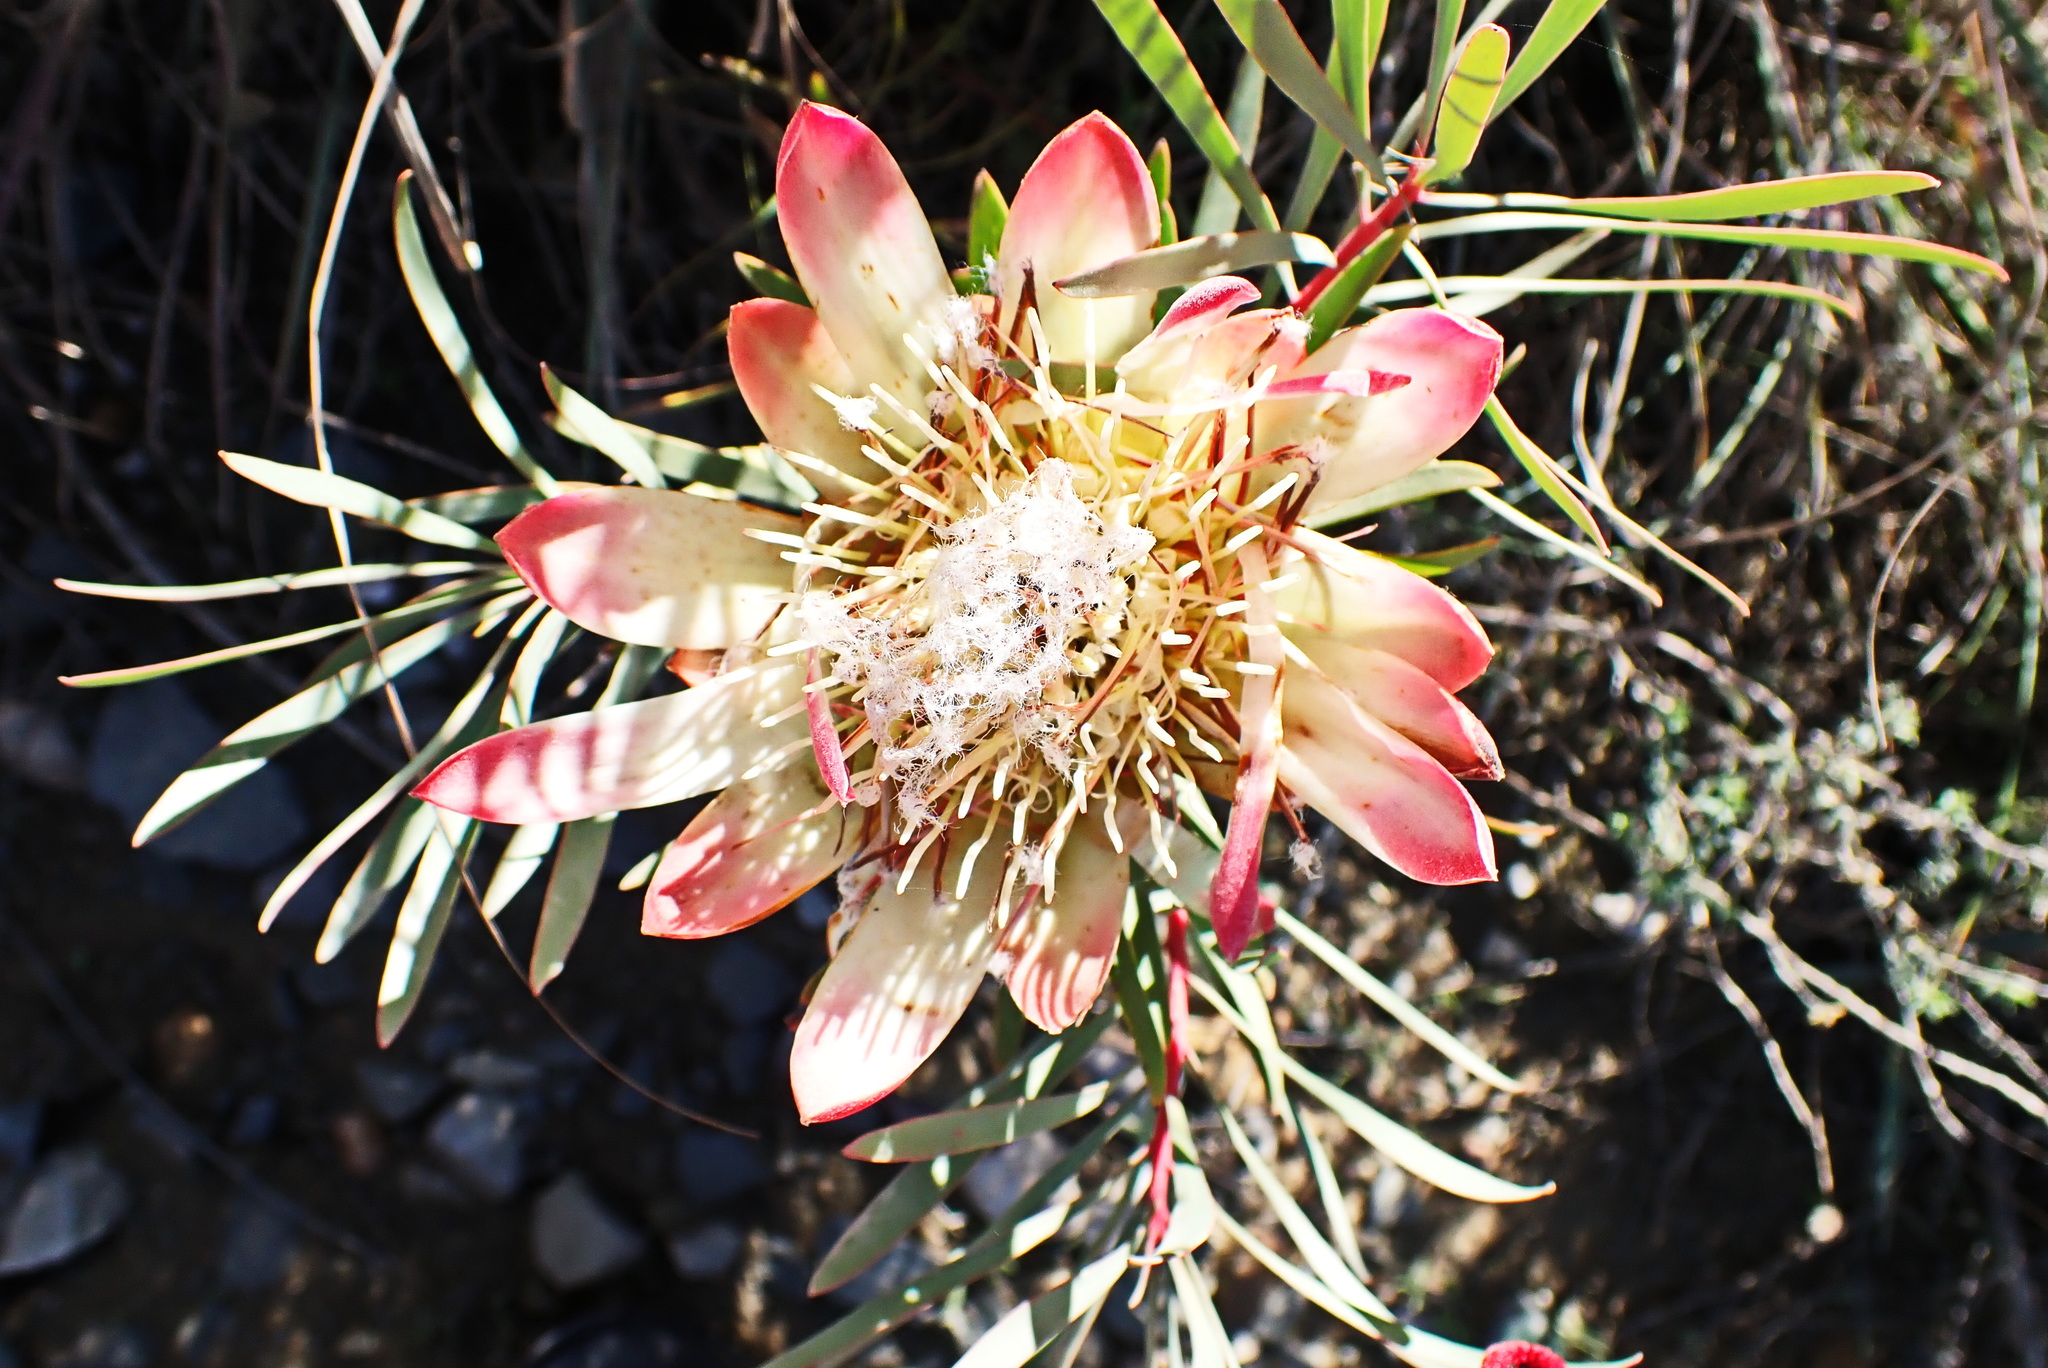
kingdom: Plantae
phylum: Tracheophyta
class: Magnoliopsida
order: Proteales
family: Proteaceae
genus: Protea
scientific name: Protea repens
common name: Sugarbush
